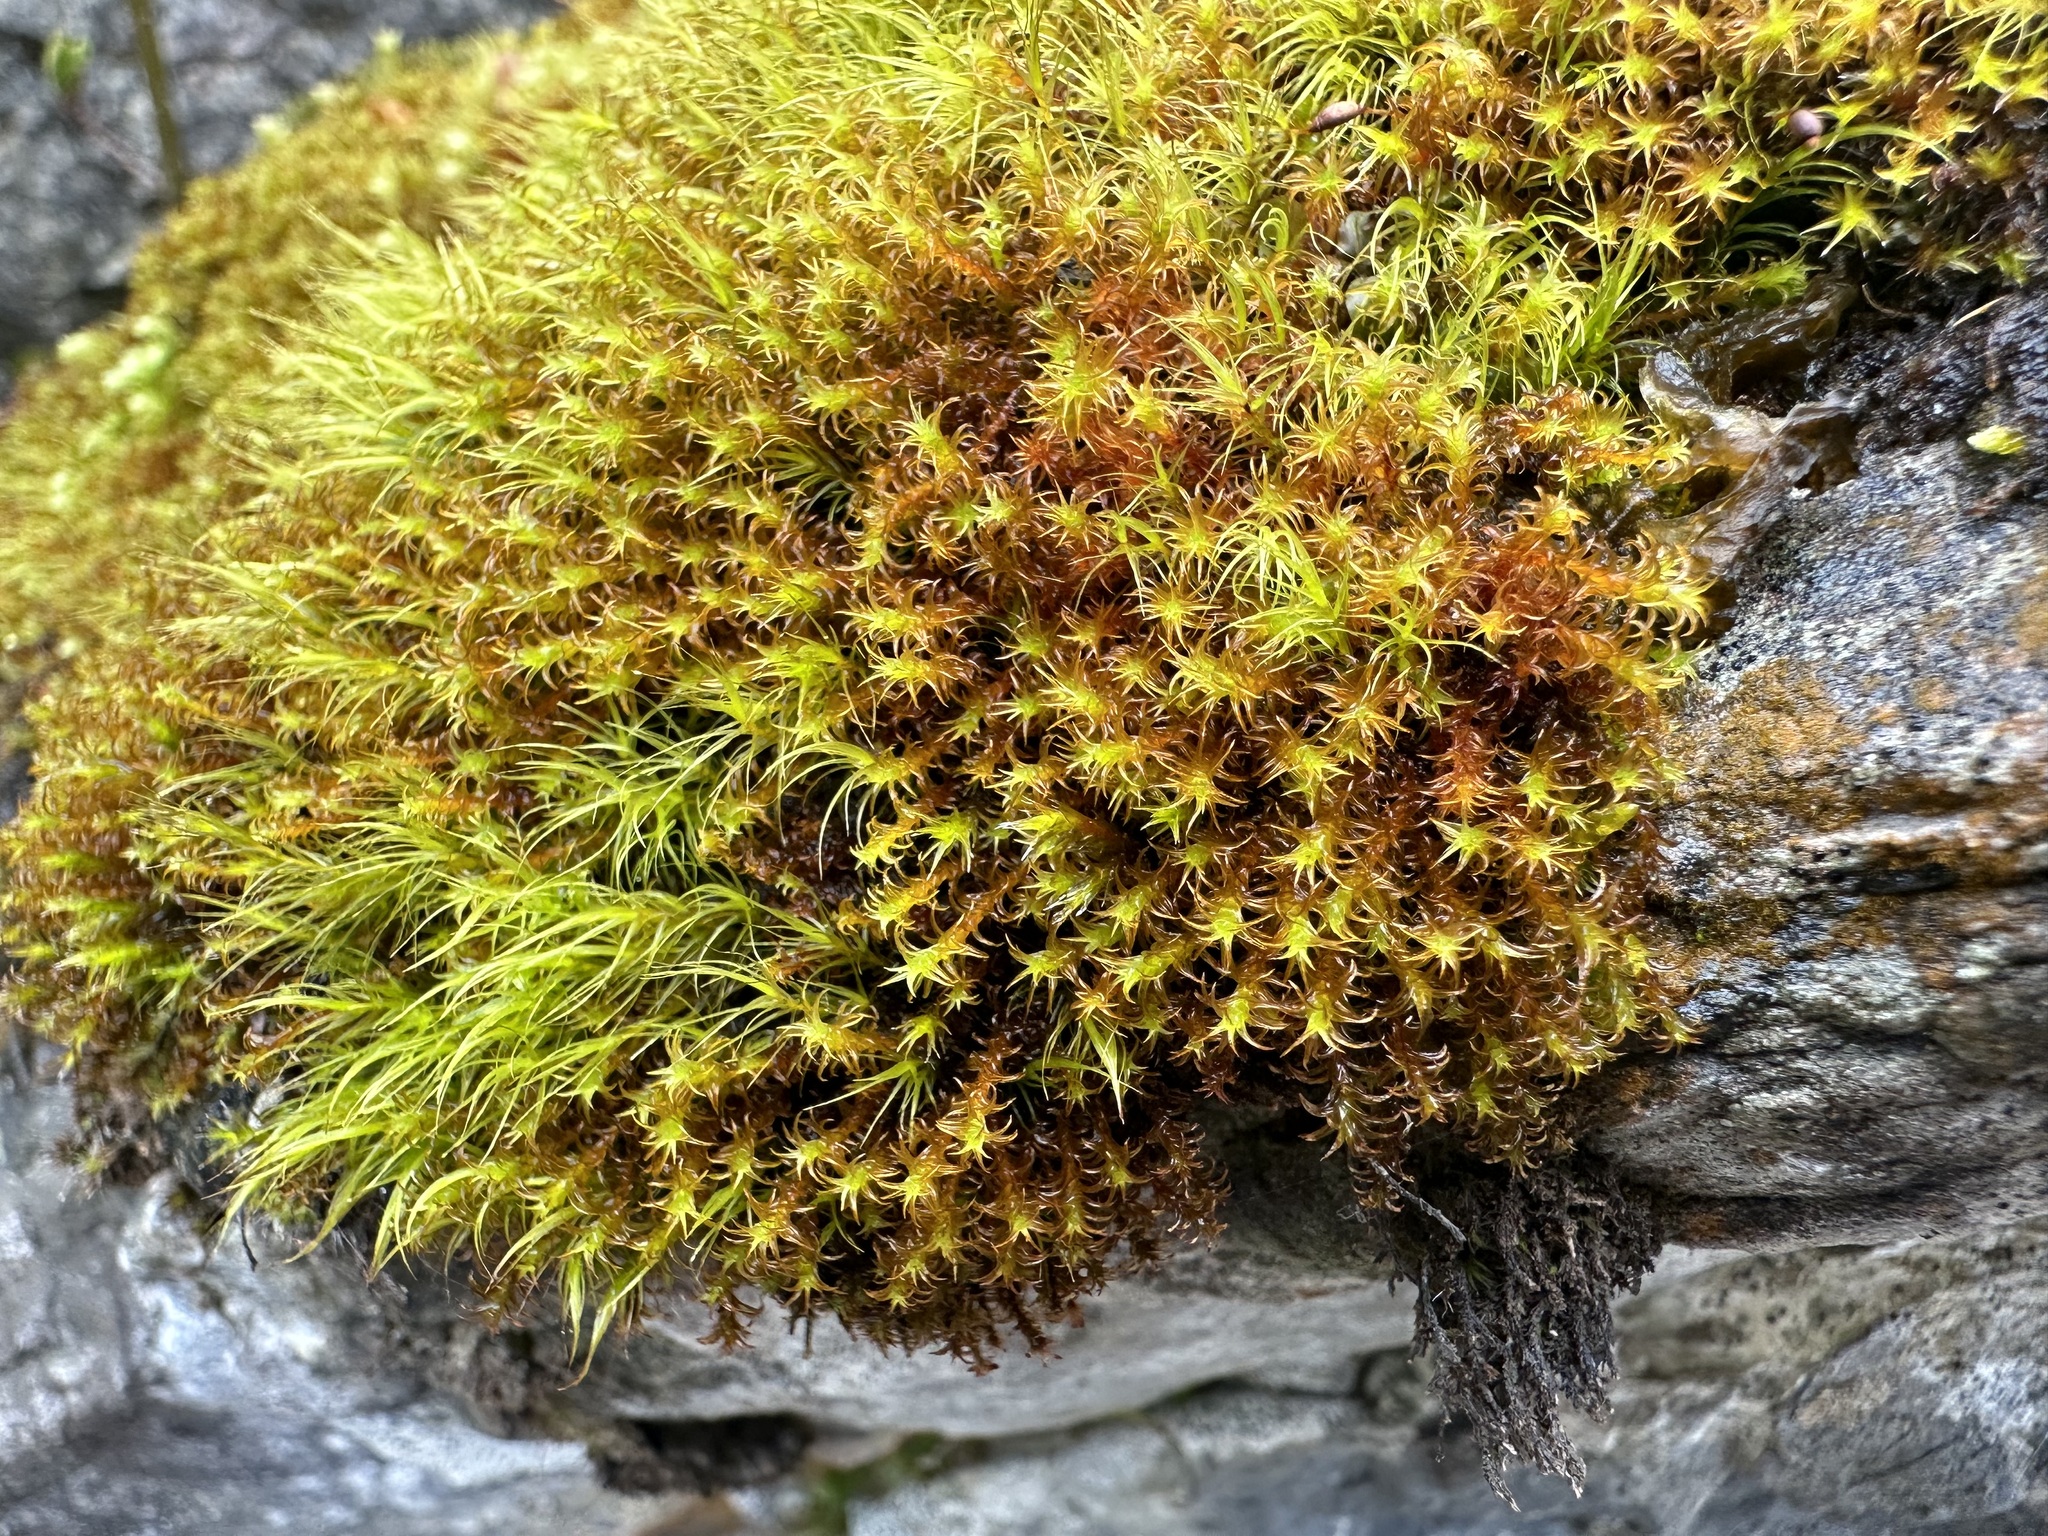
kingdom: Plantae
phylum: Bryophyta
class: Bryopsida
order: Pottiales
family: Pottiaceae
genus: Geheebia
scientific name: Geheebia ferruginea
